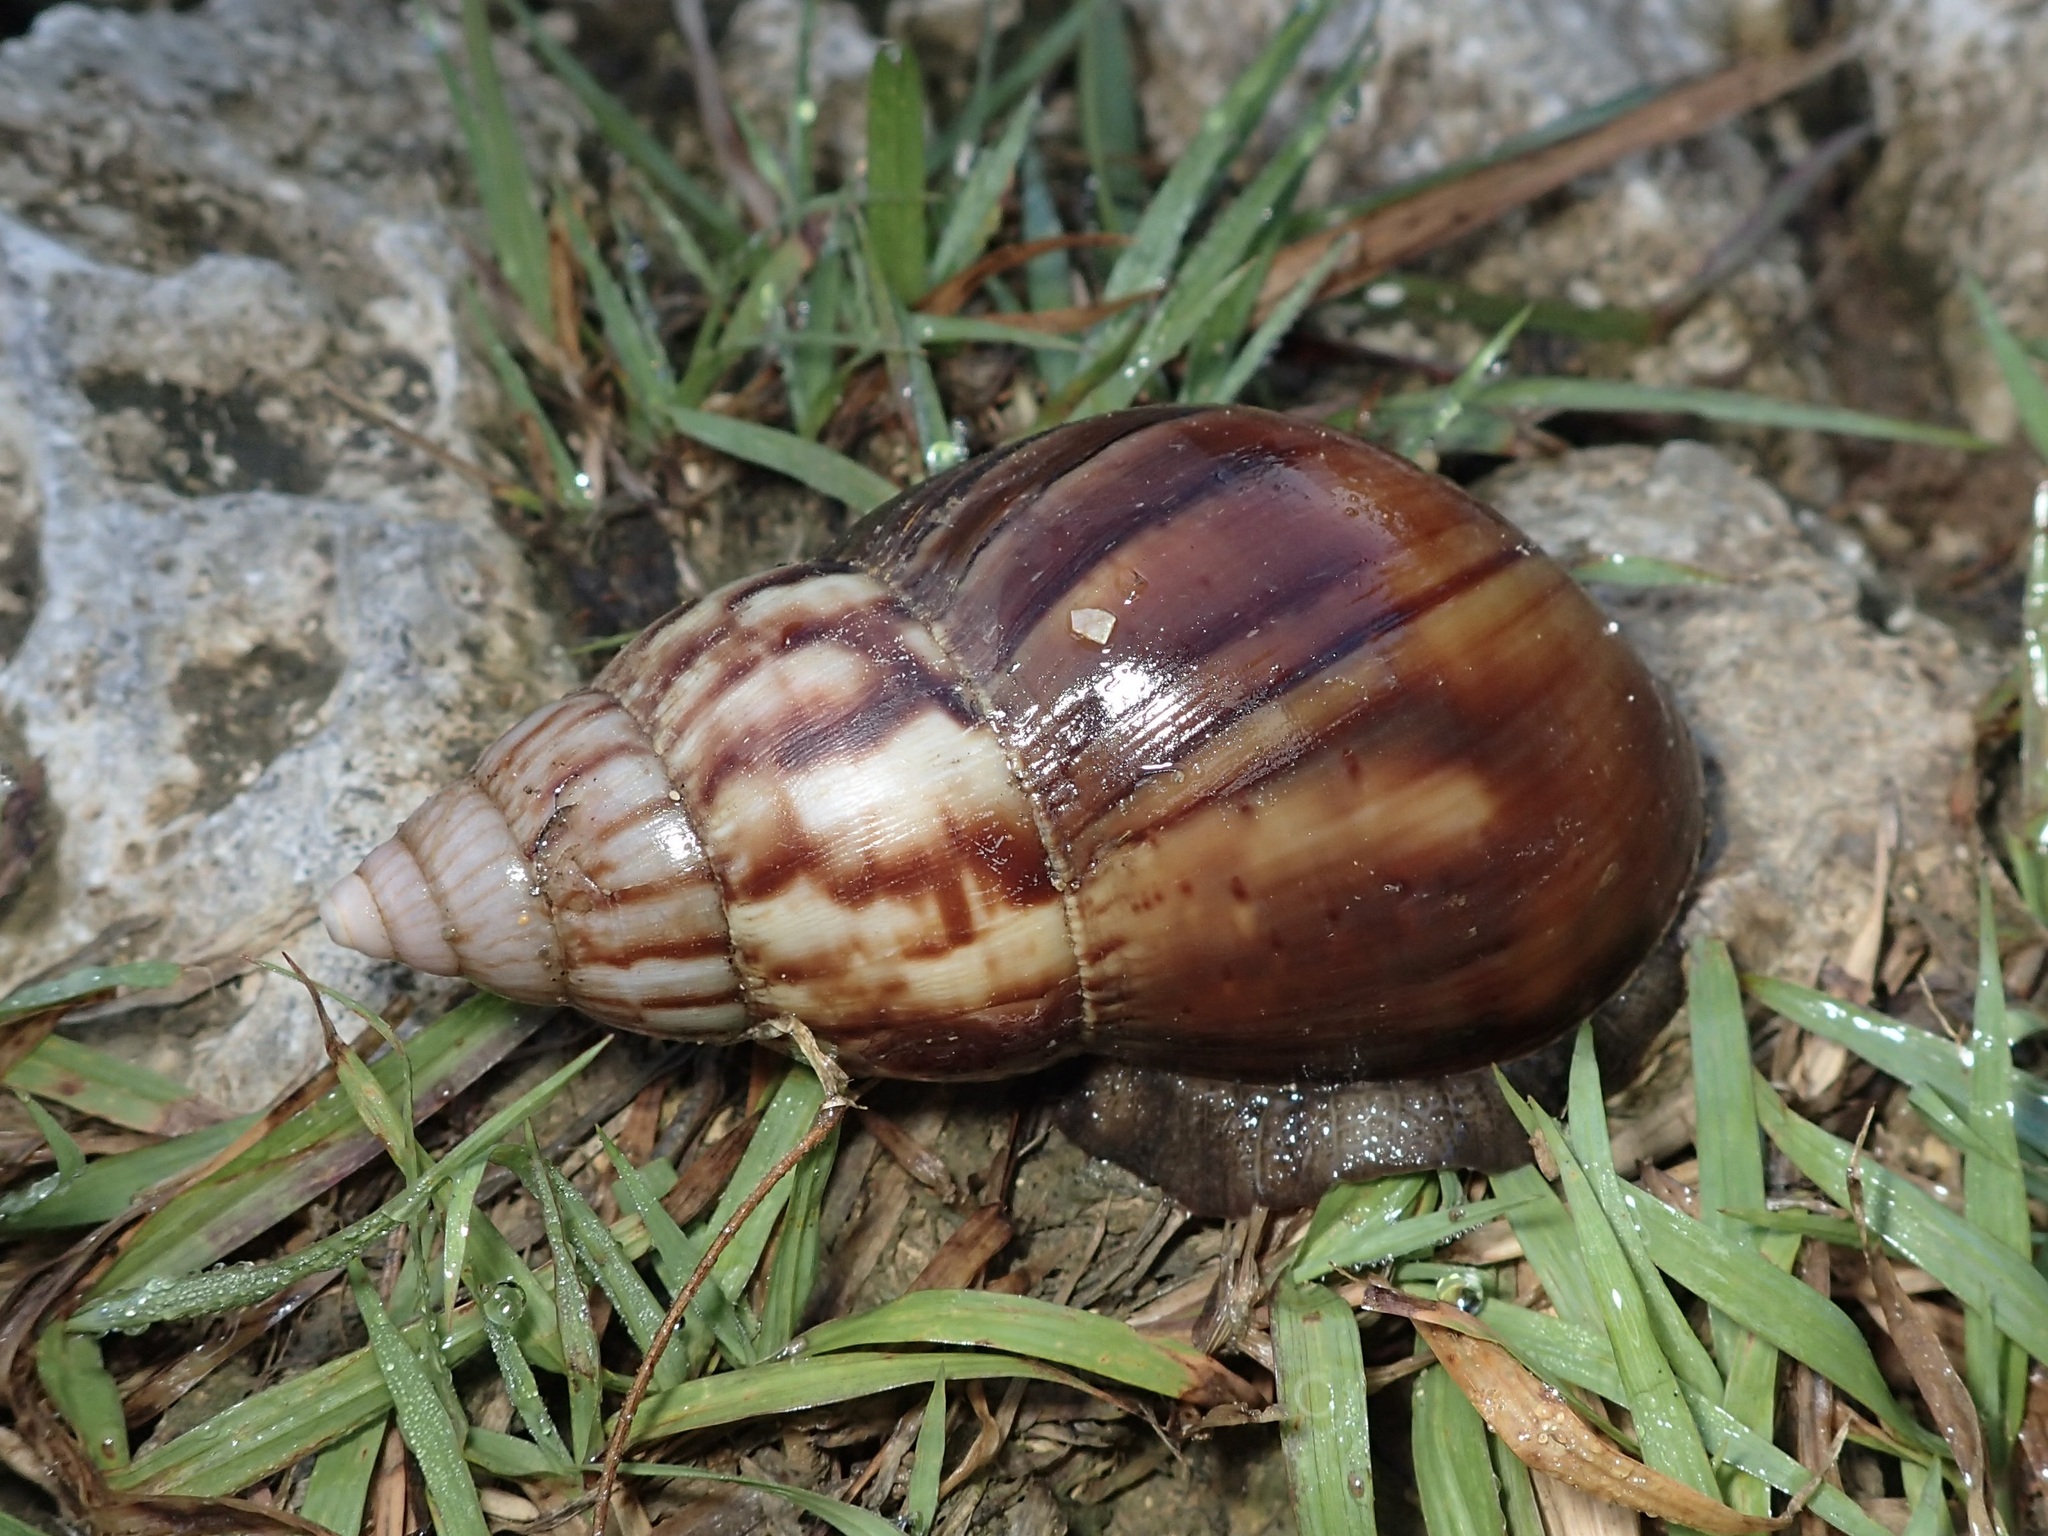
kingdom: Animalia
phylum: Mollusca
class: Gastropoda
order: Stylommatophora
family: Achatinidae
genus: Lissachatina
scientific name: Lissachatina fulica
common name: Giant african snail
